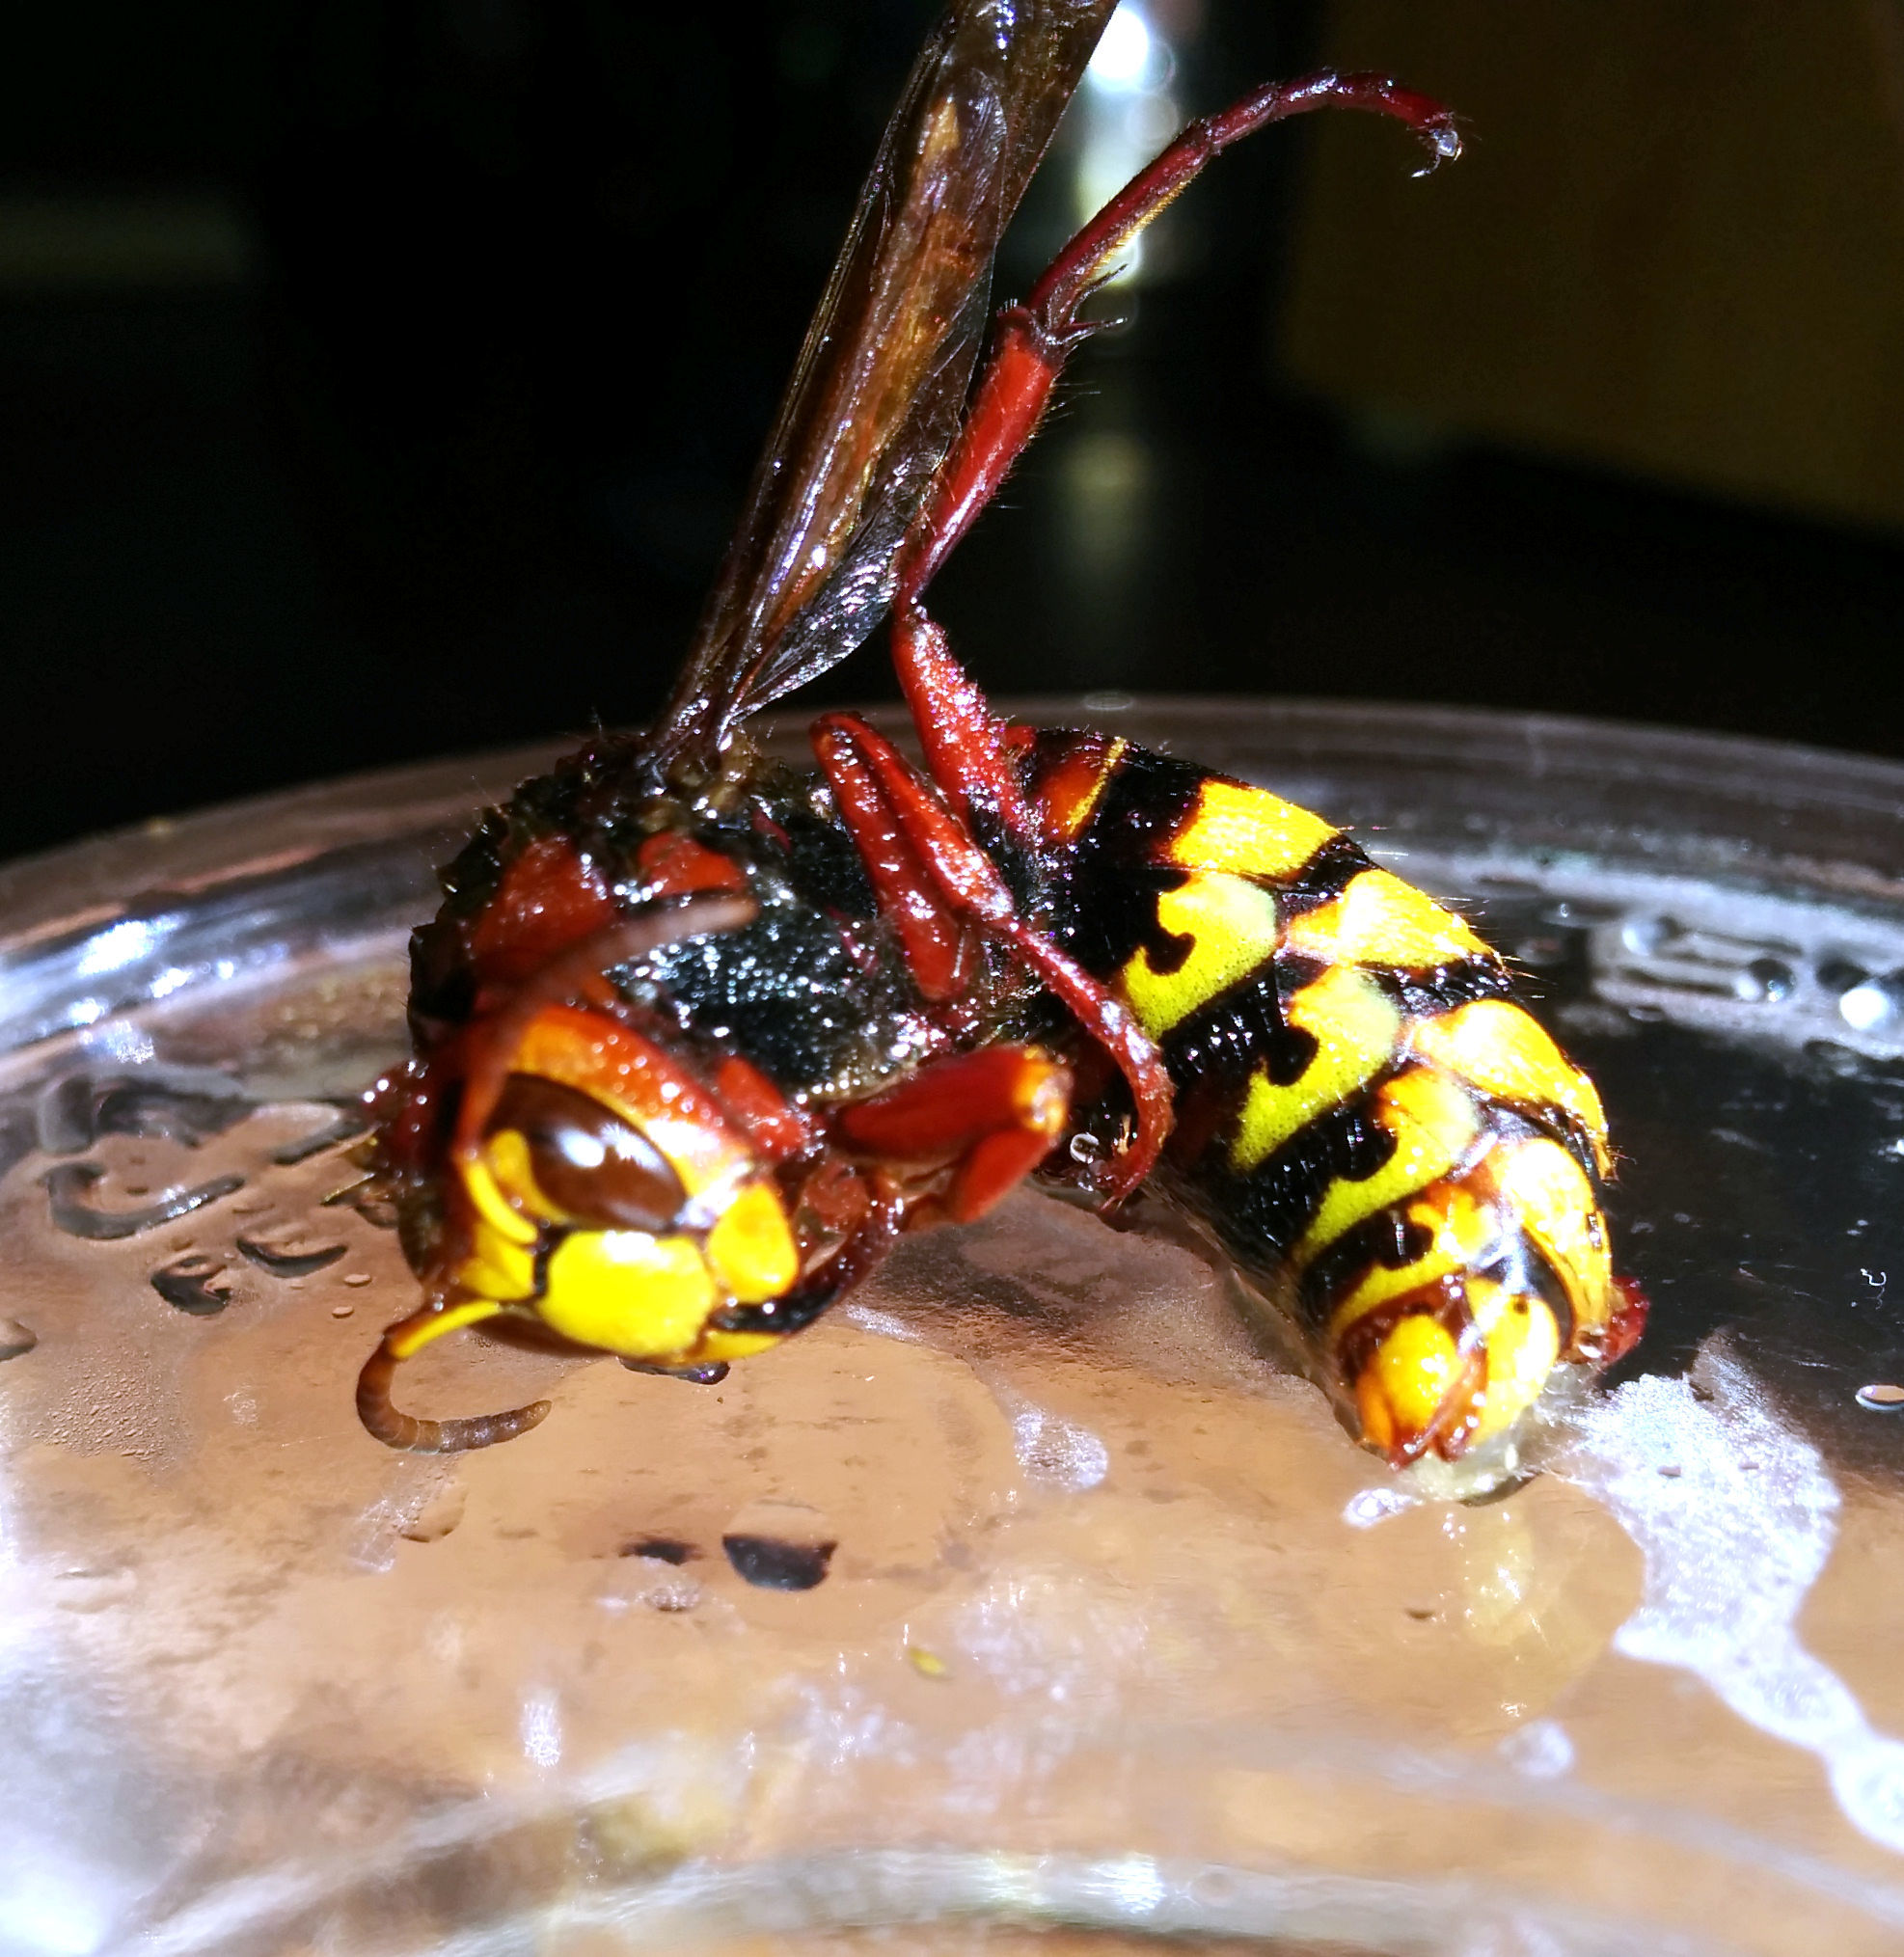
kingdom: Animalia
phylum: Arthropoda
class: Insecta
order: Hymenoptera
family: Vespidae
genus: Vespa
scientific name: Vespa crabro
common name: Hornet
